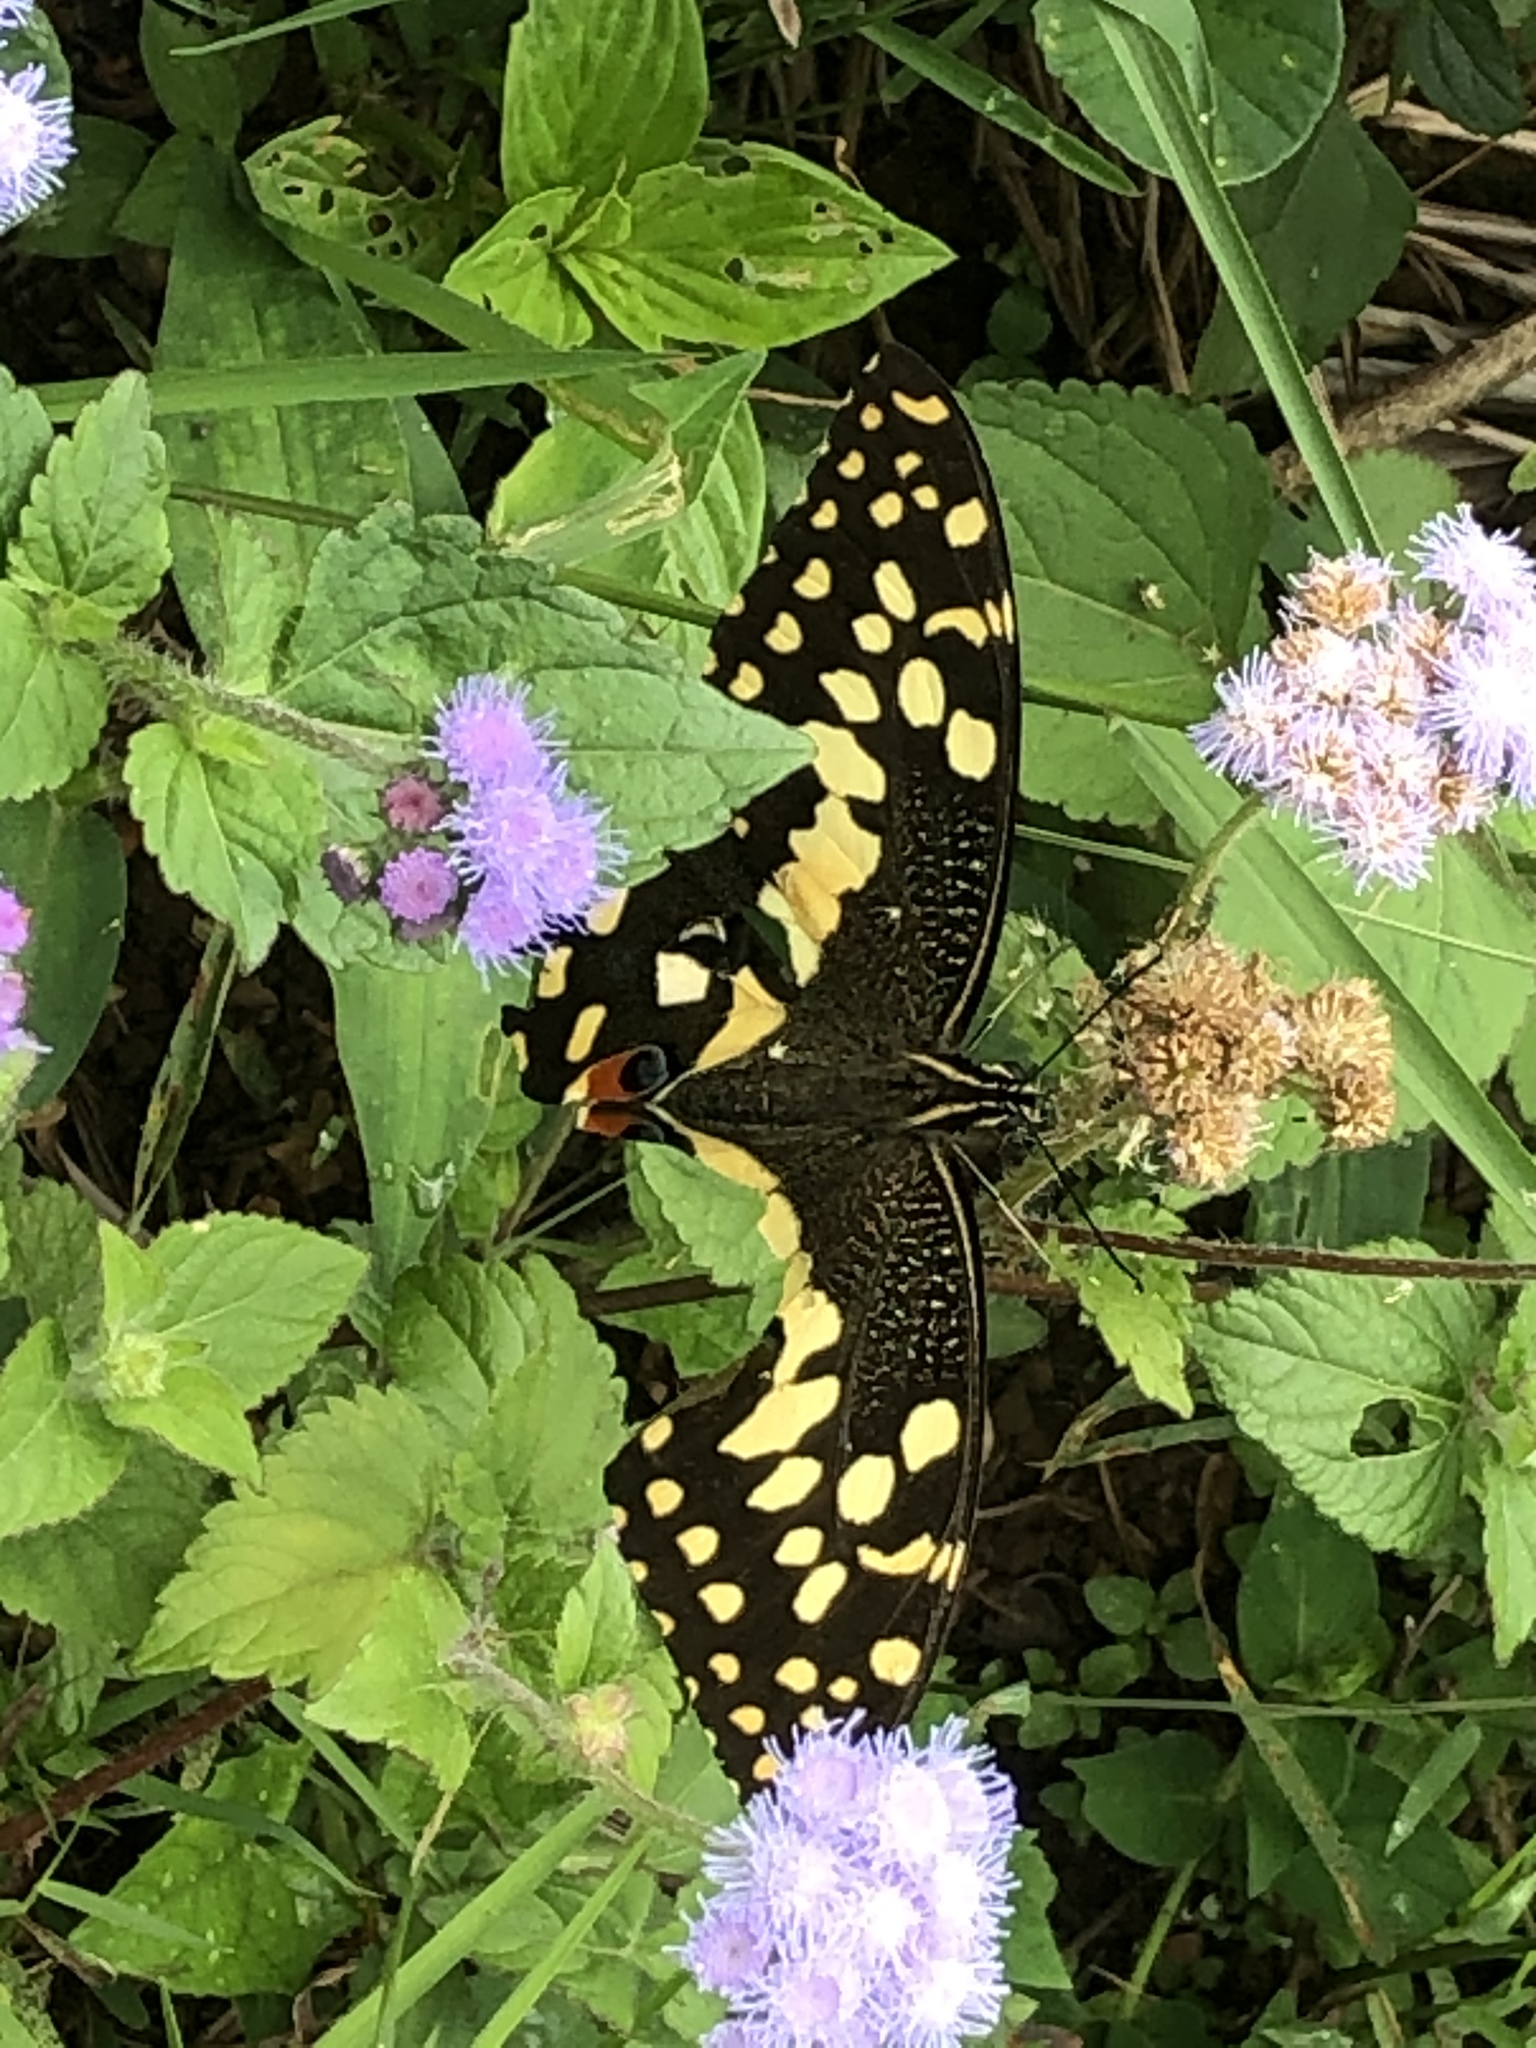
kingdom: Animalia
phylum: Arthropoda
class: Insecta
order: Lepidoptera
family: Papilionidae
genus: Papilio
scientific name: Papilio demodocus
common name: Christmas butterfly
